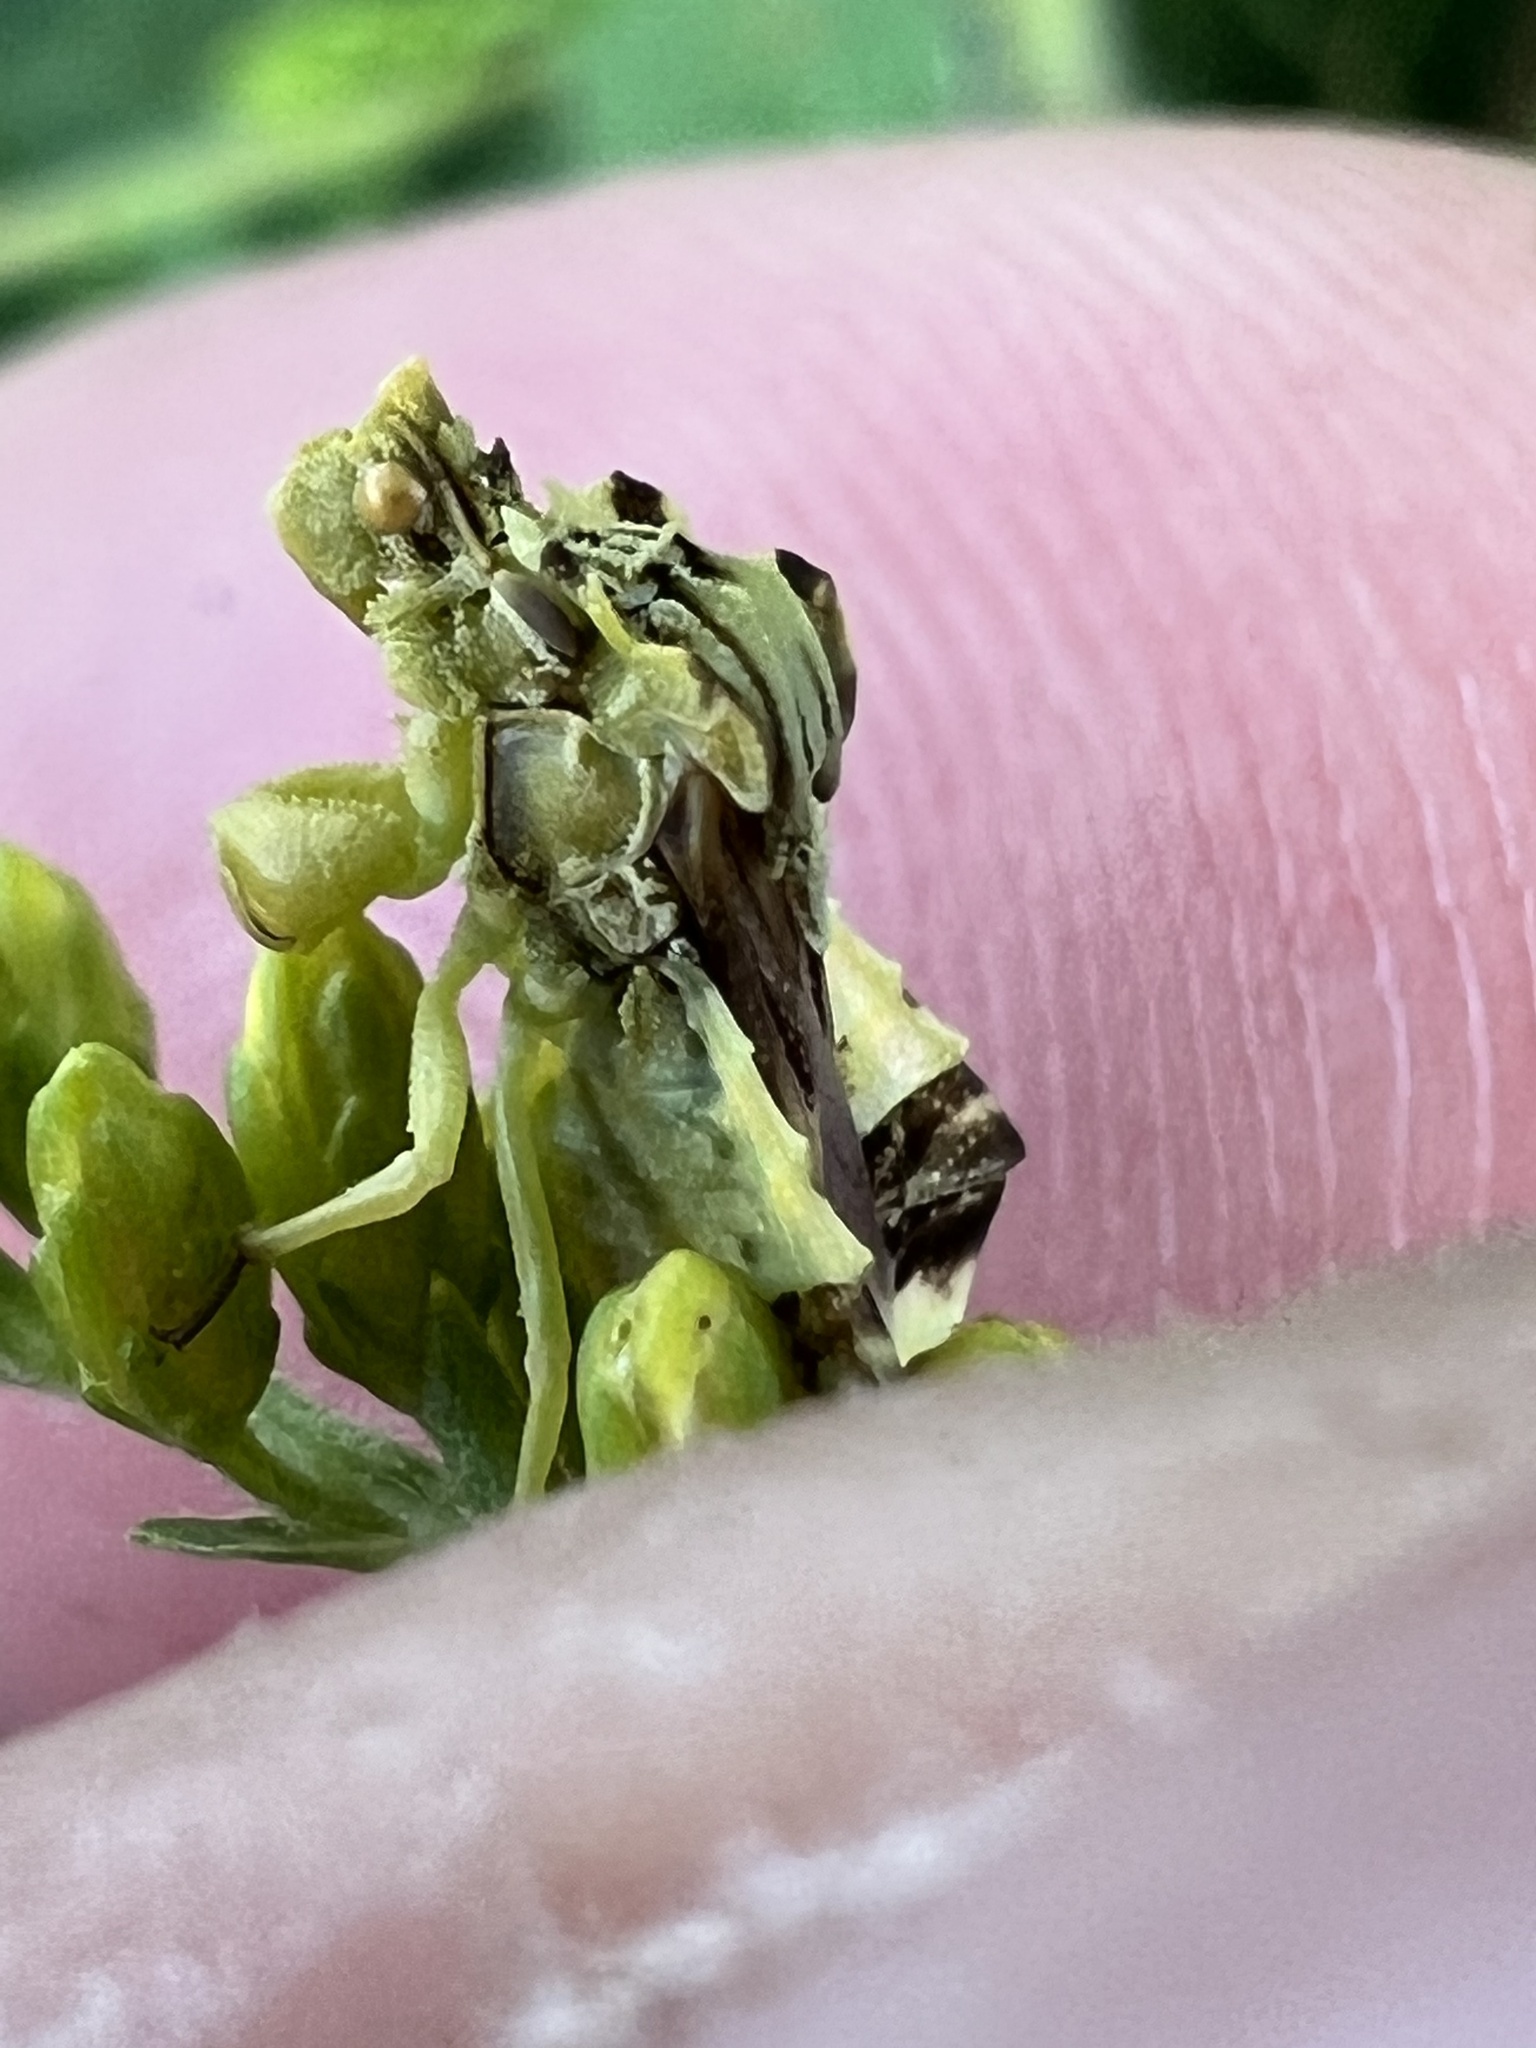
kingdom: Animalia
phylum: Arthropoda
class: Insecta
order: Hemiptera
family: Reduviidae
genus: Phymata
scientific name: Phymata fasciata
